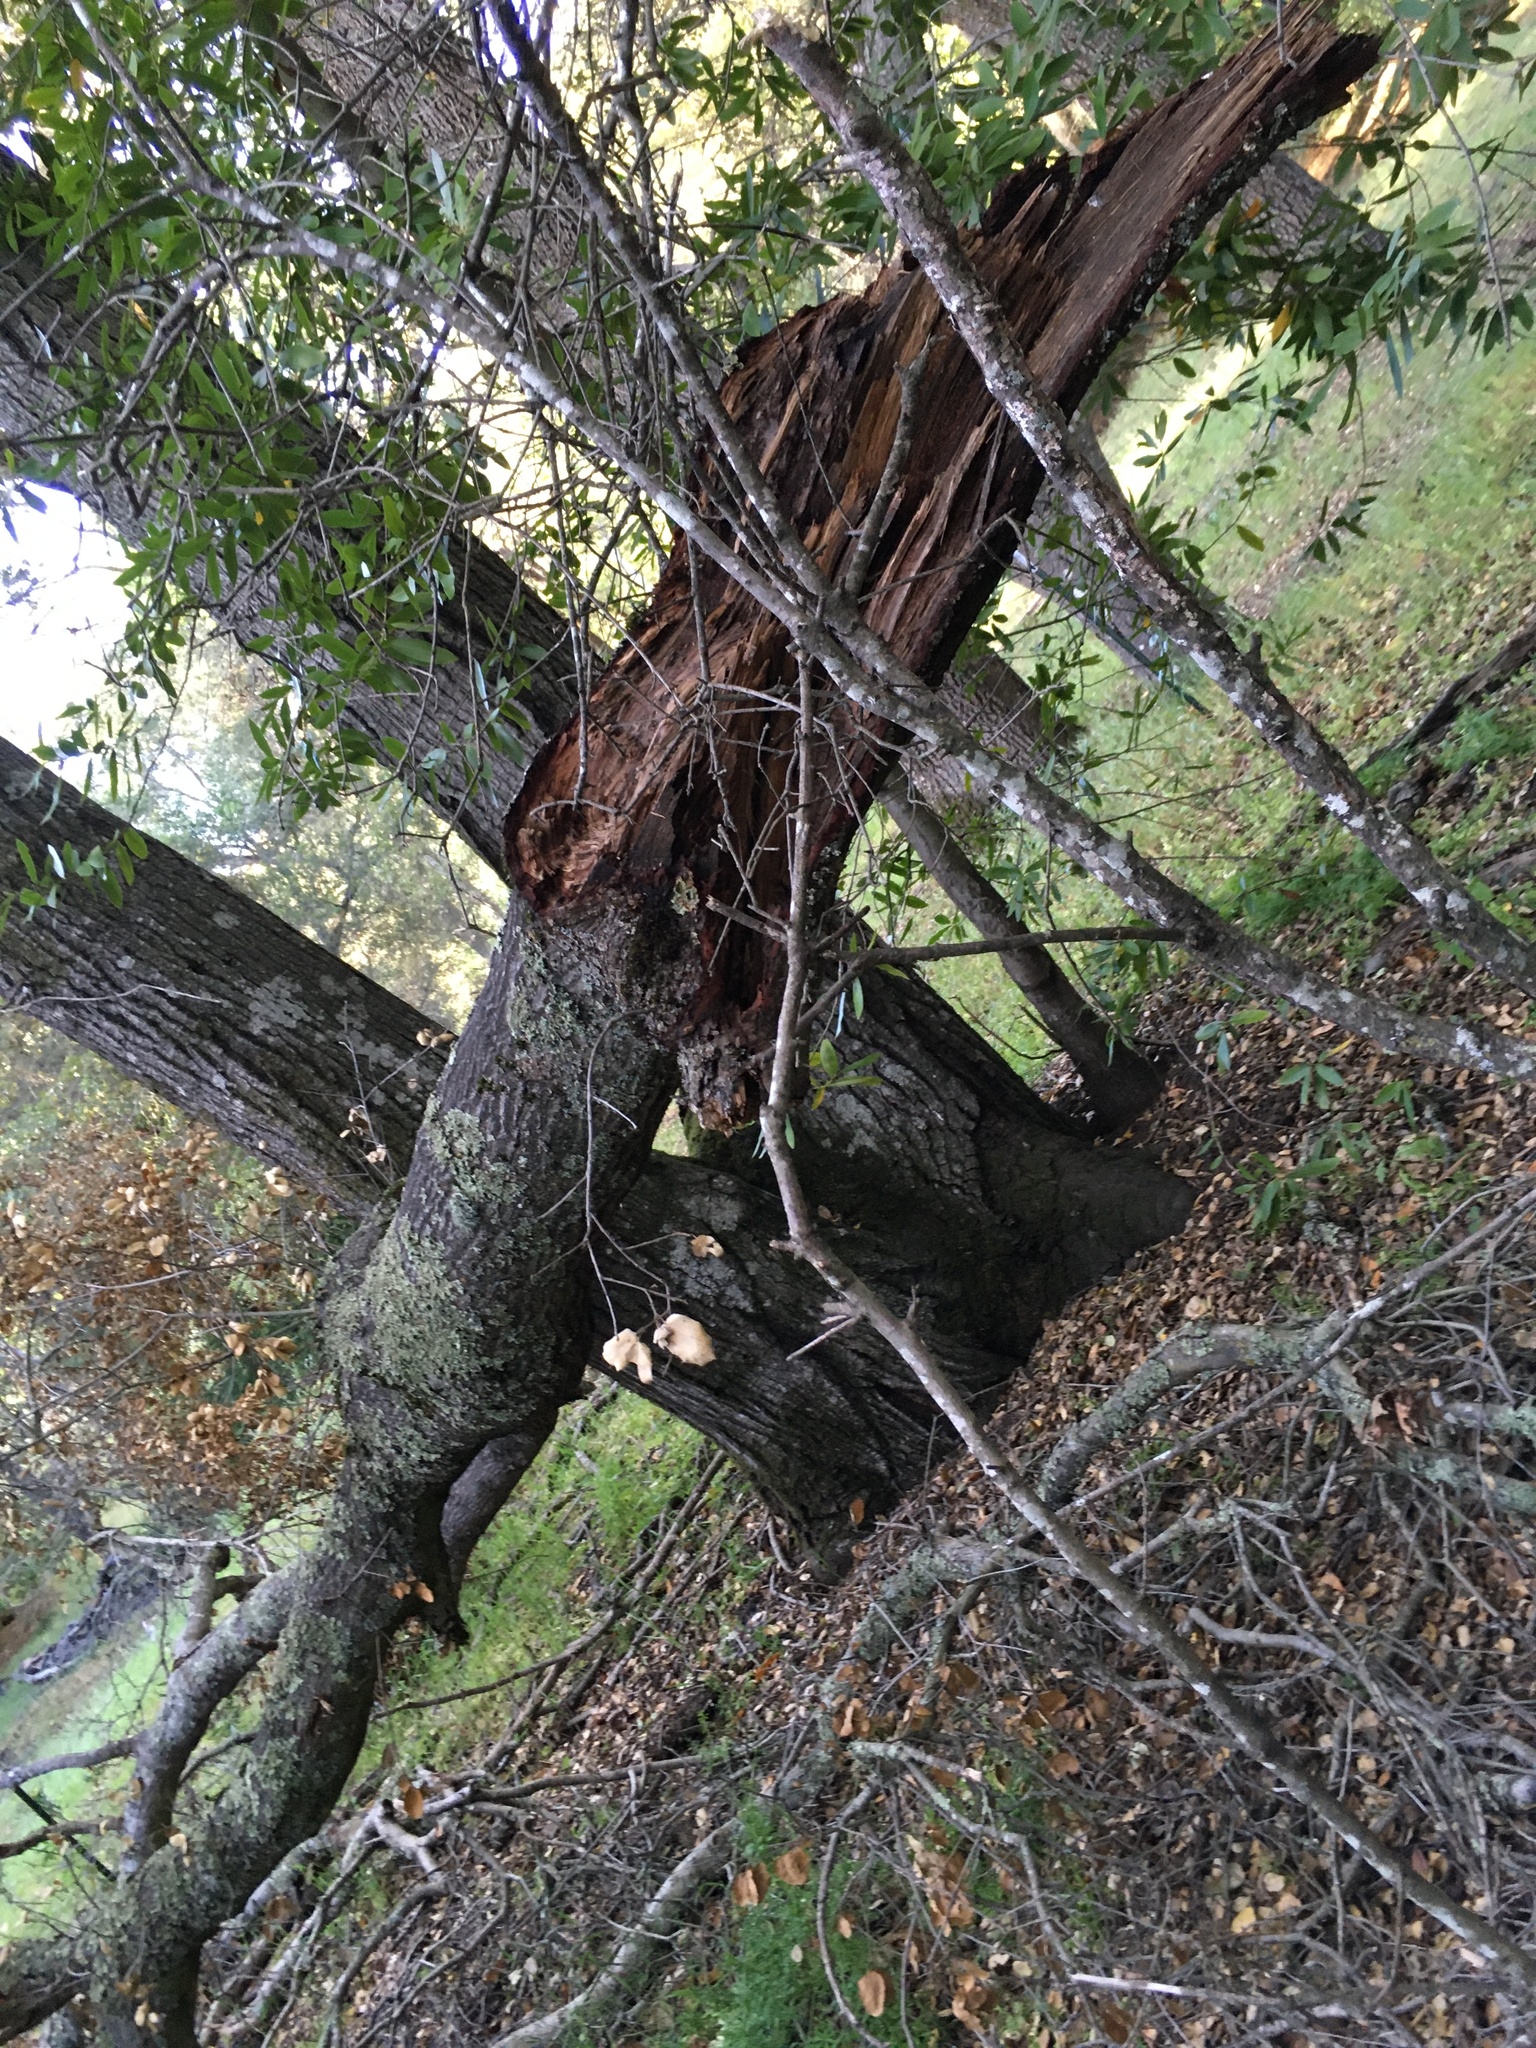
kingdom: Plantae
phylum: Tracheophyta
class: Magnoliopsida
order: Fagales
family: Fagaceae
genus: Quercus
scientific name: Quercus agrifolia
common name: California live oak
